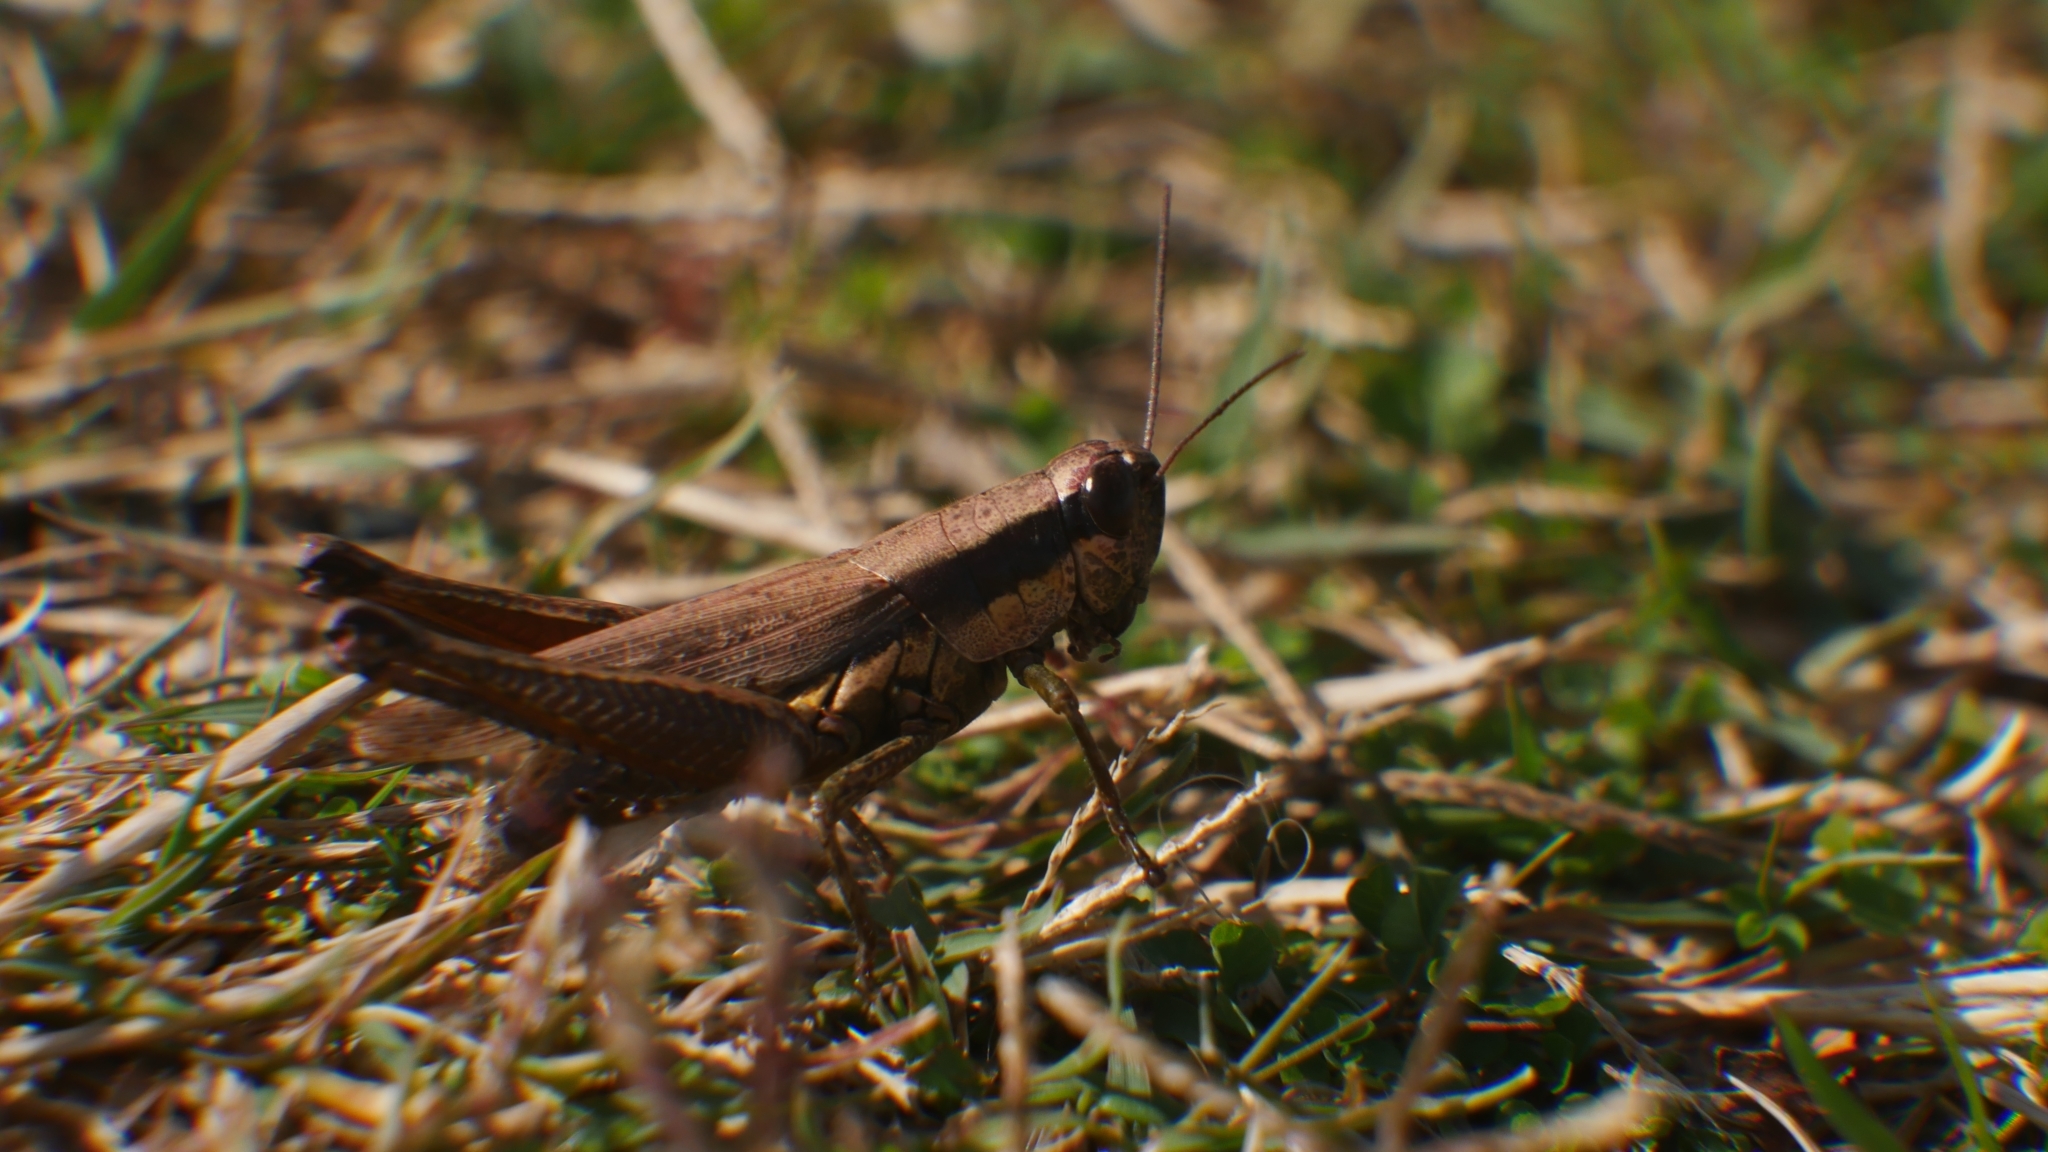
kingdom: Animalia
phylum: Arthropoda
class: Insecta
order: Orthoptera
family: Acrididae
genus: Paroxya
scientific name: Paroxya clavuligera
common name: Olive-green swamp grasshopper
